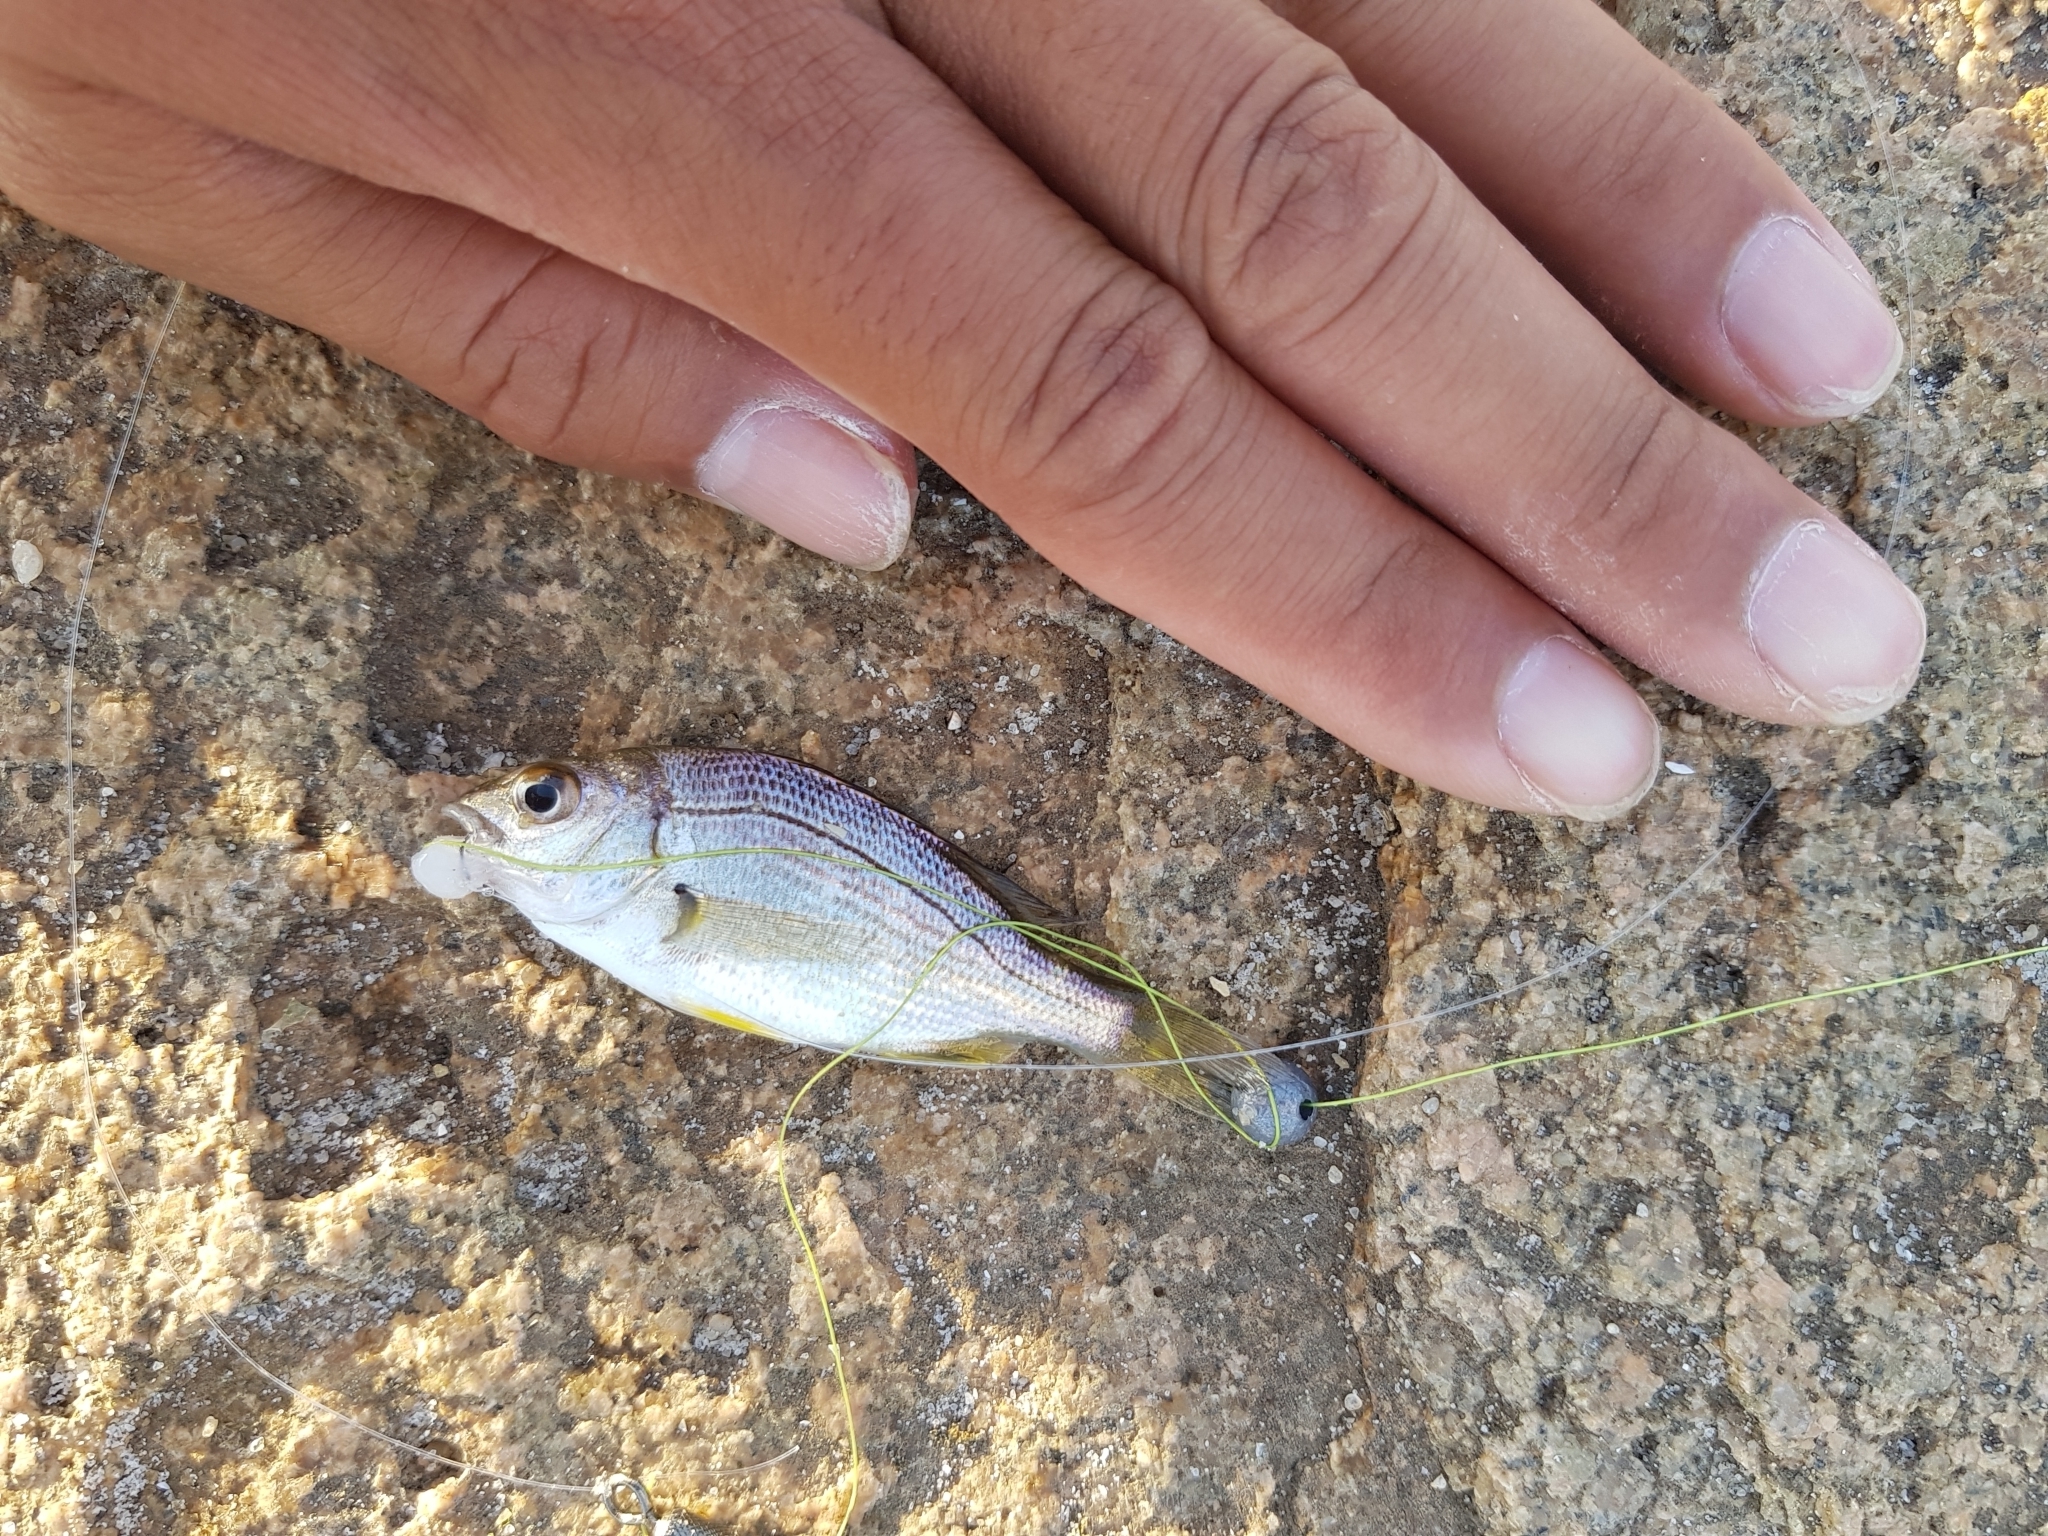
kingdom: Animalia
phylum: Chordata
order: Perciformes
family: Sparidae
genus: Acanthopagrus
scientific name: Acanthopagrus butcheri
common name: Black bream
